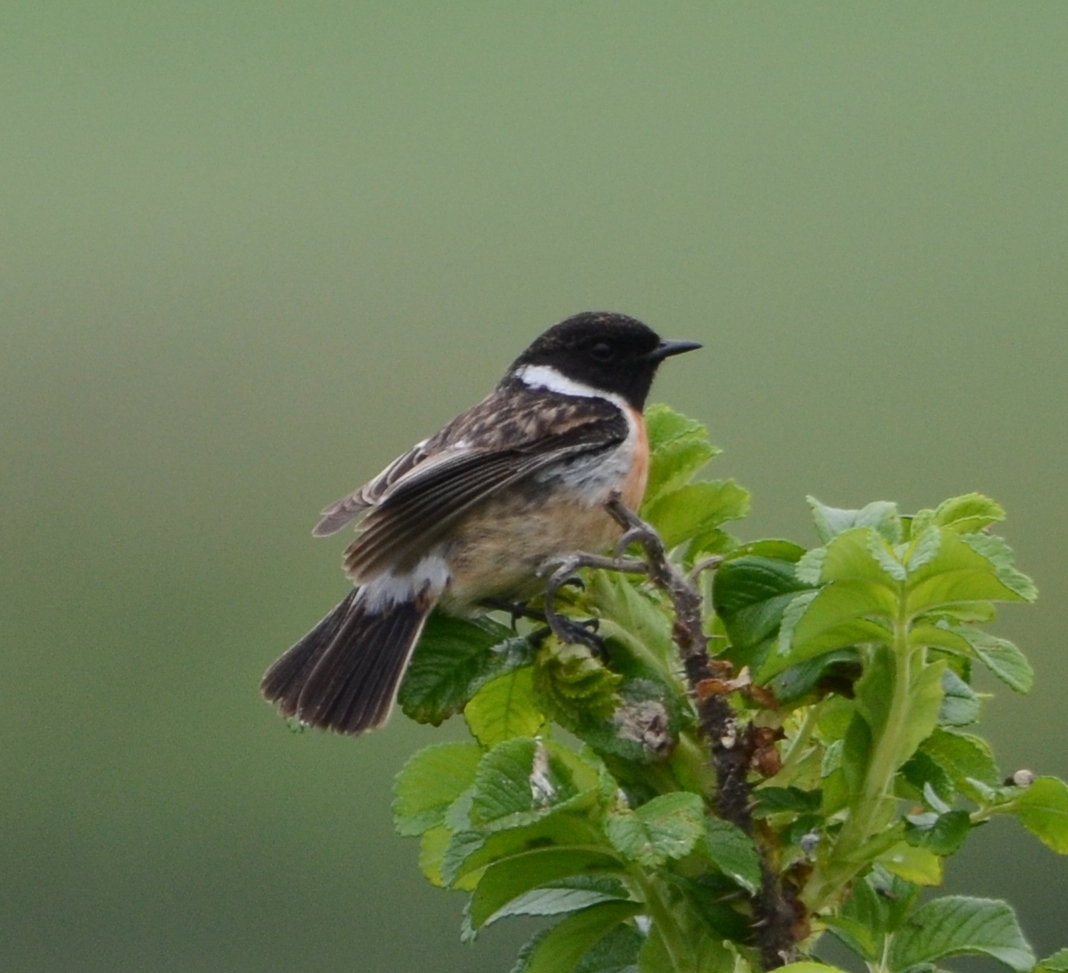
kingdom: Animalia
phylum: Chordata
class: Aves
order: Passeriformes
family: Muscicapidae
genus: Saxicola
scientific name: Saxicola rubicola
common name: European stonechat
